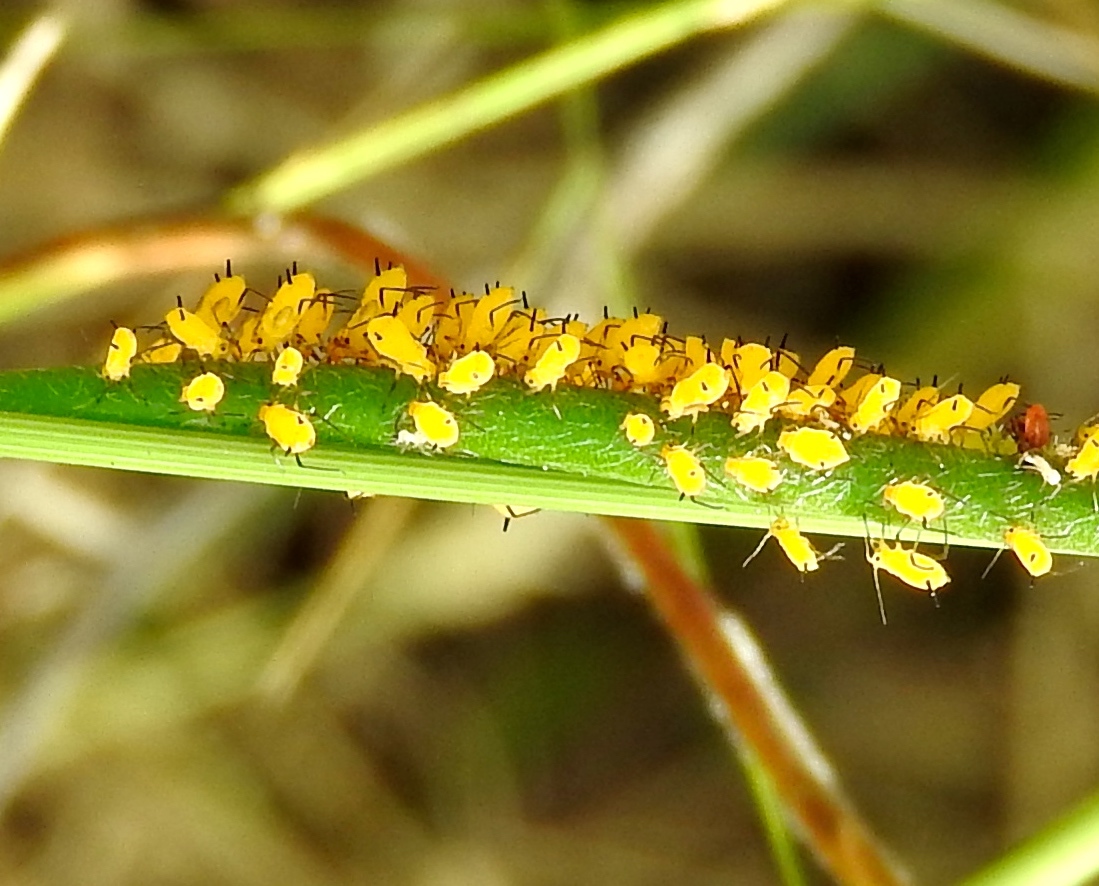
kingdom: Animalia
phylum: Arthropoda
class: Insecta
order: Hemiptera
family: Aphididae
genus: Aphis
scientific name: Aphis nerii
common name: Oleander aphid
